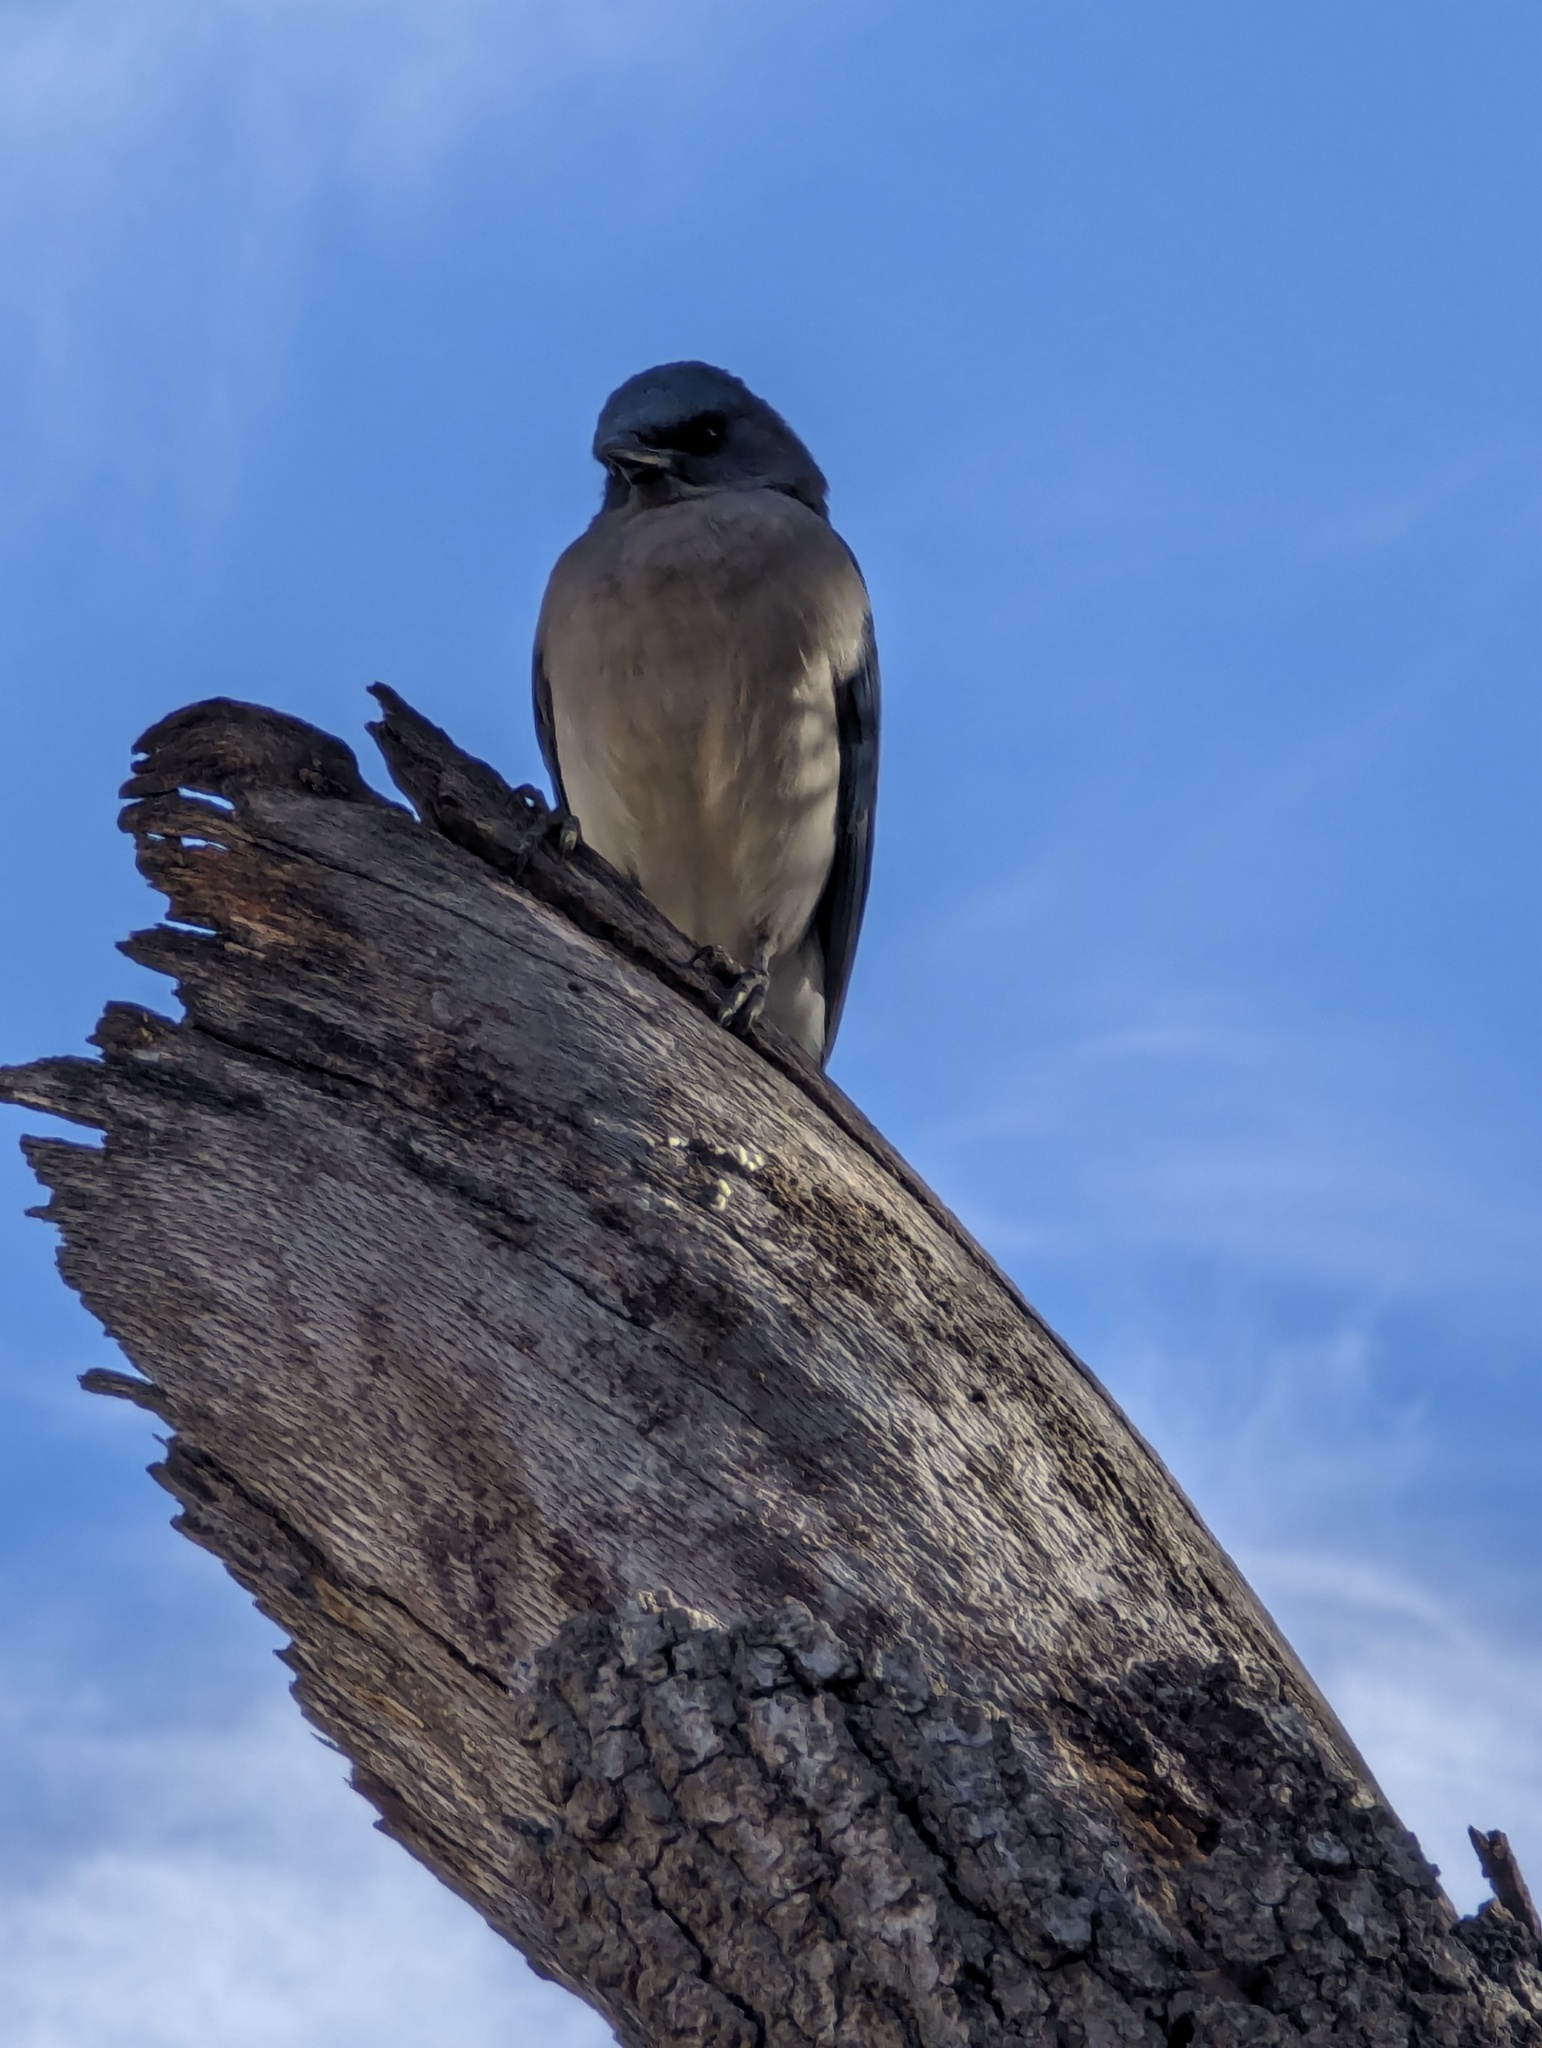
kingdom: Animalia
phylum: Chordata
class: Aves
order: Passeriformes
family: Corvidae
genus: Aphelocoma
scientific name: Aphelocoma wollweberi
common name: Mexican jay
